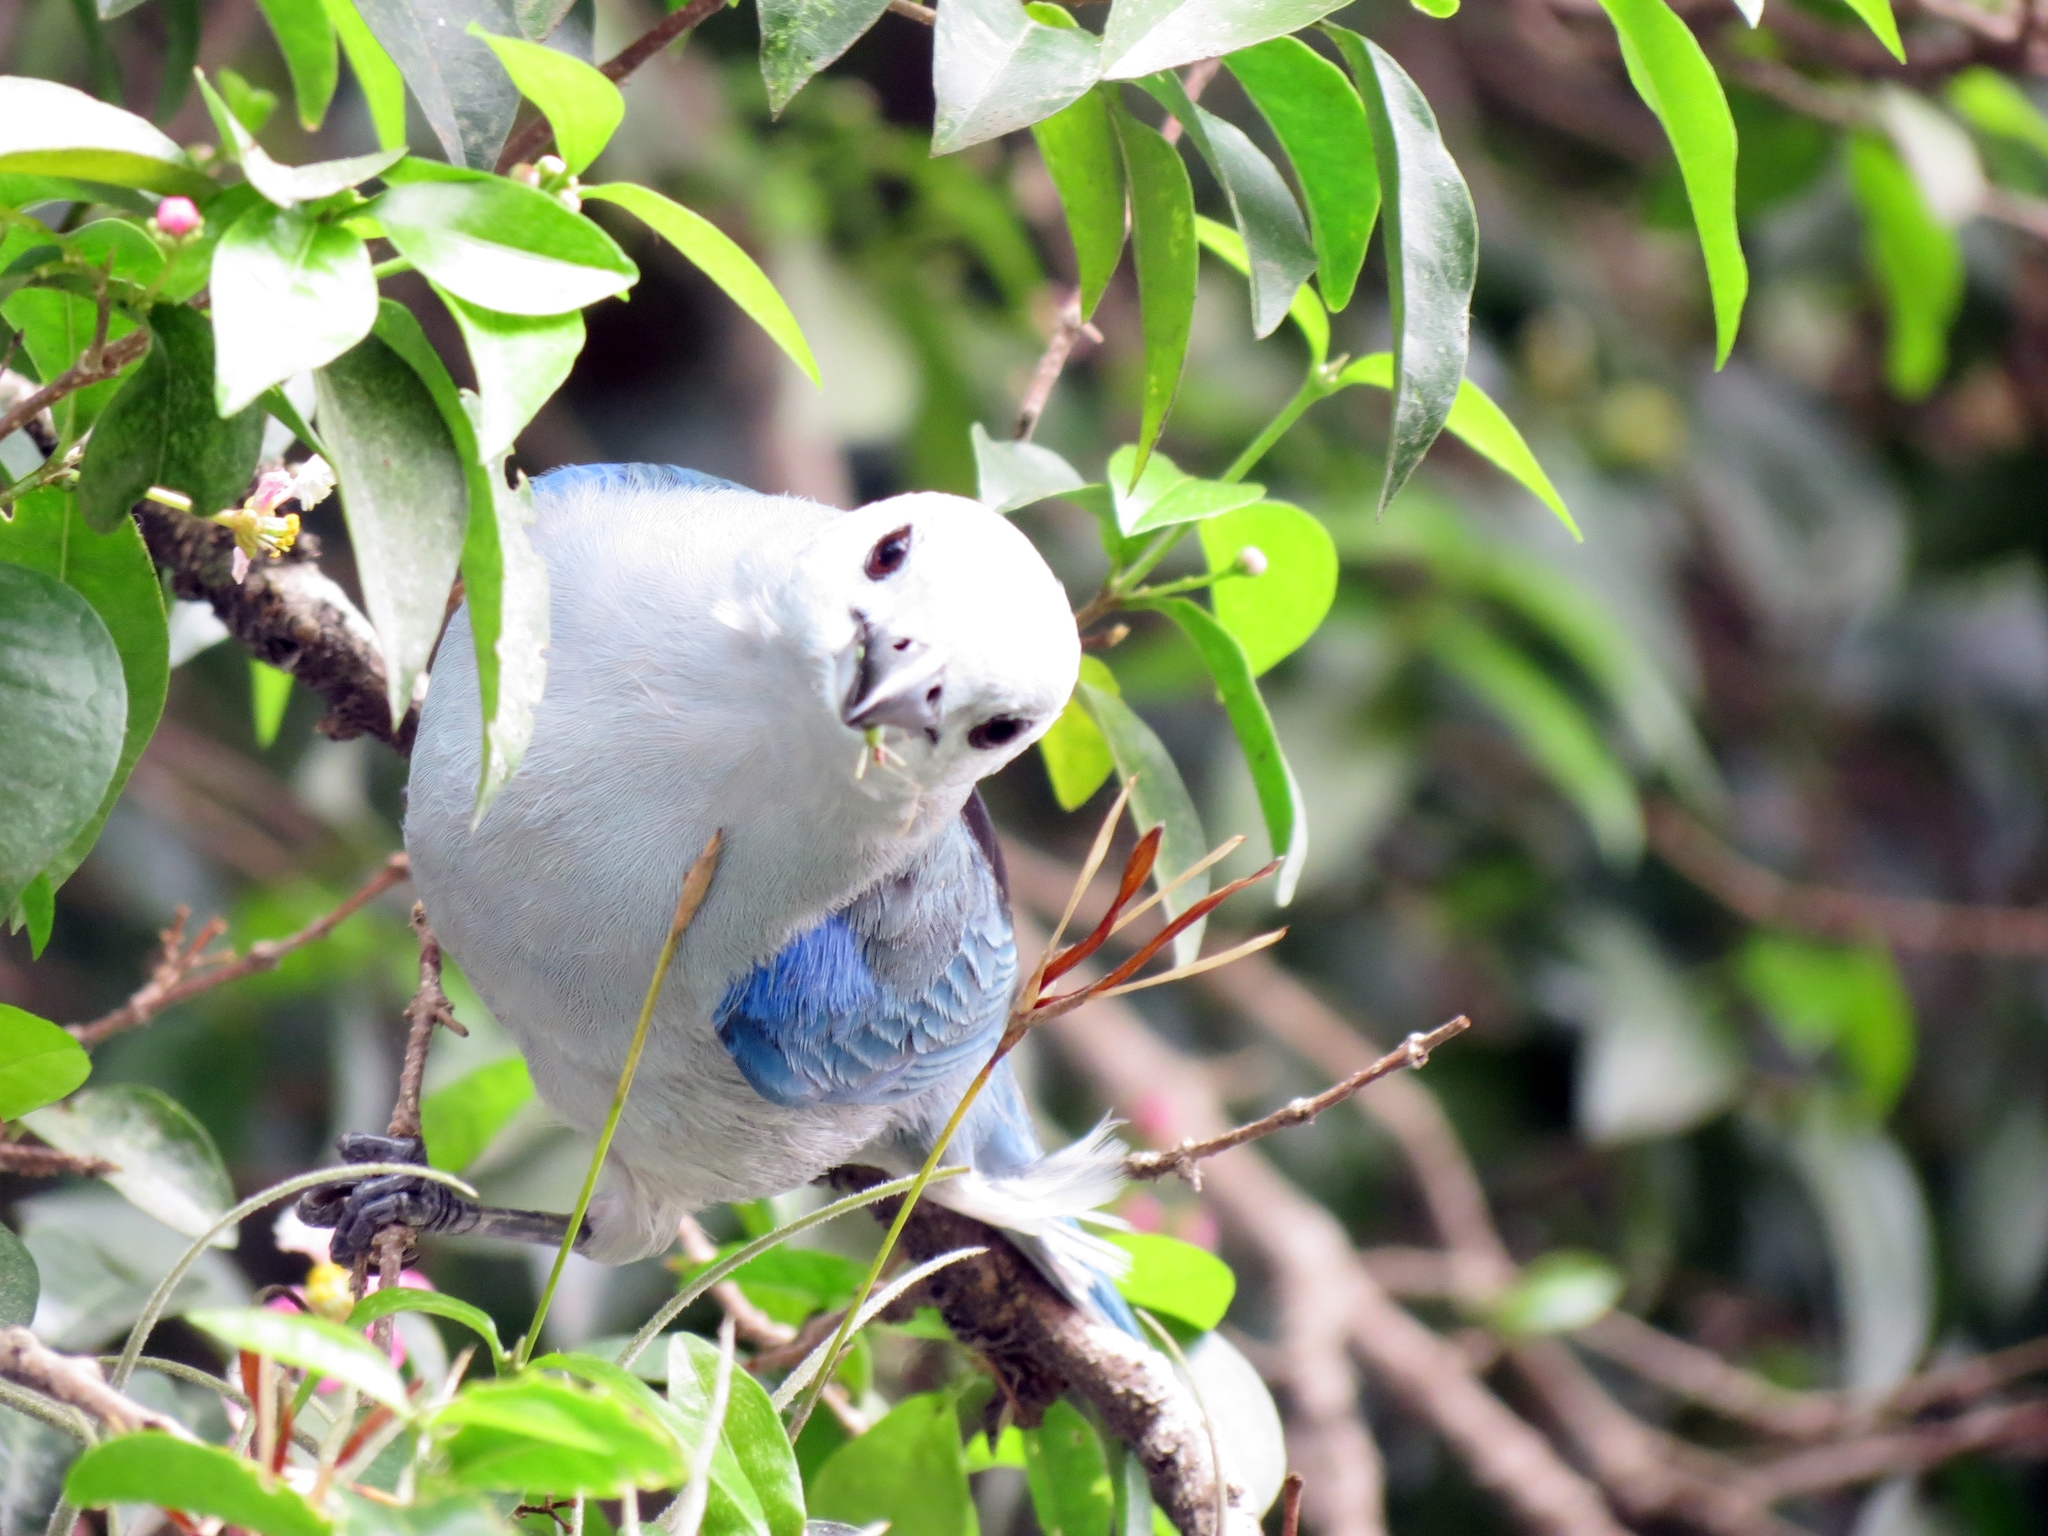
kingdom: Animalia
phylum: Chordata
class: Aves
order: Passeriformes
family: Thraupidae
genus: Thraupis
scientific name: Thraupis episcopus
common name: Blue-grey tanager
